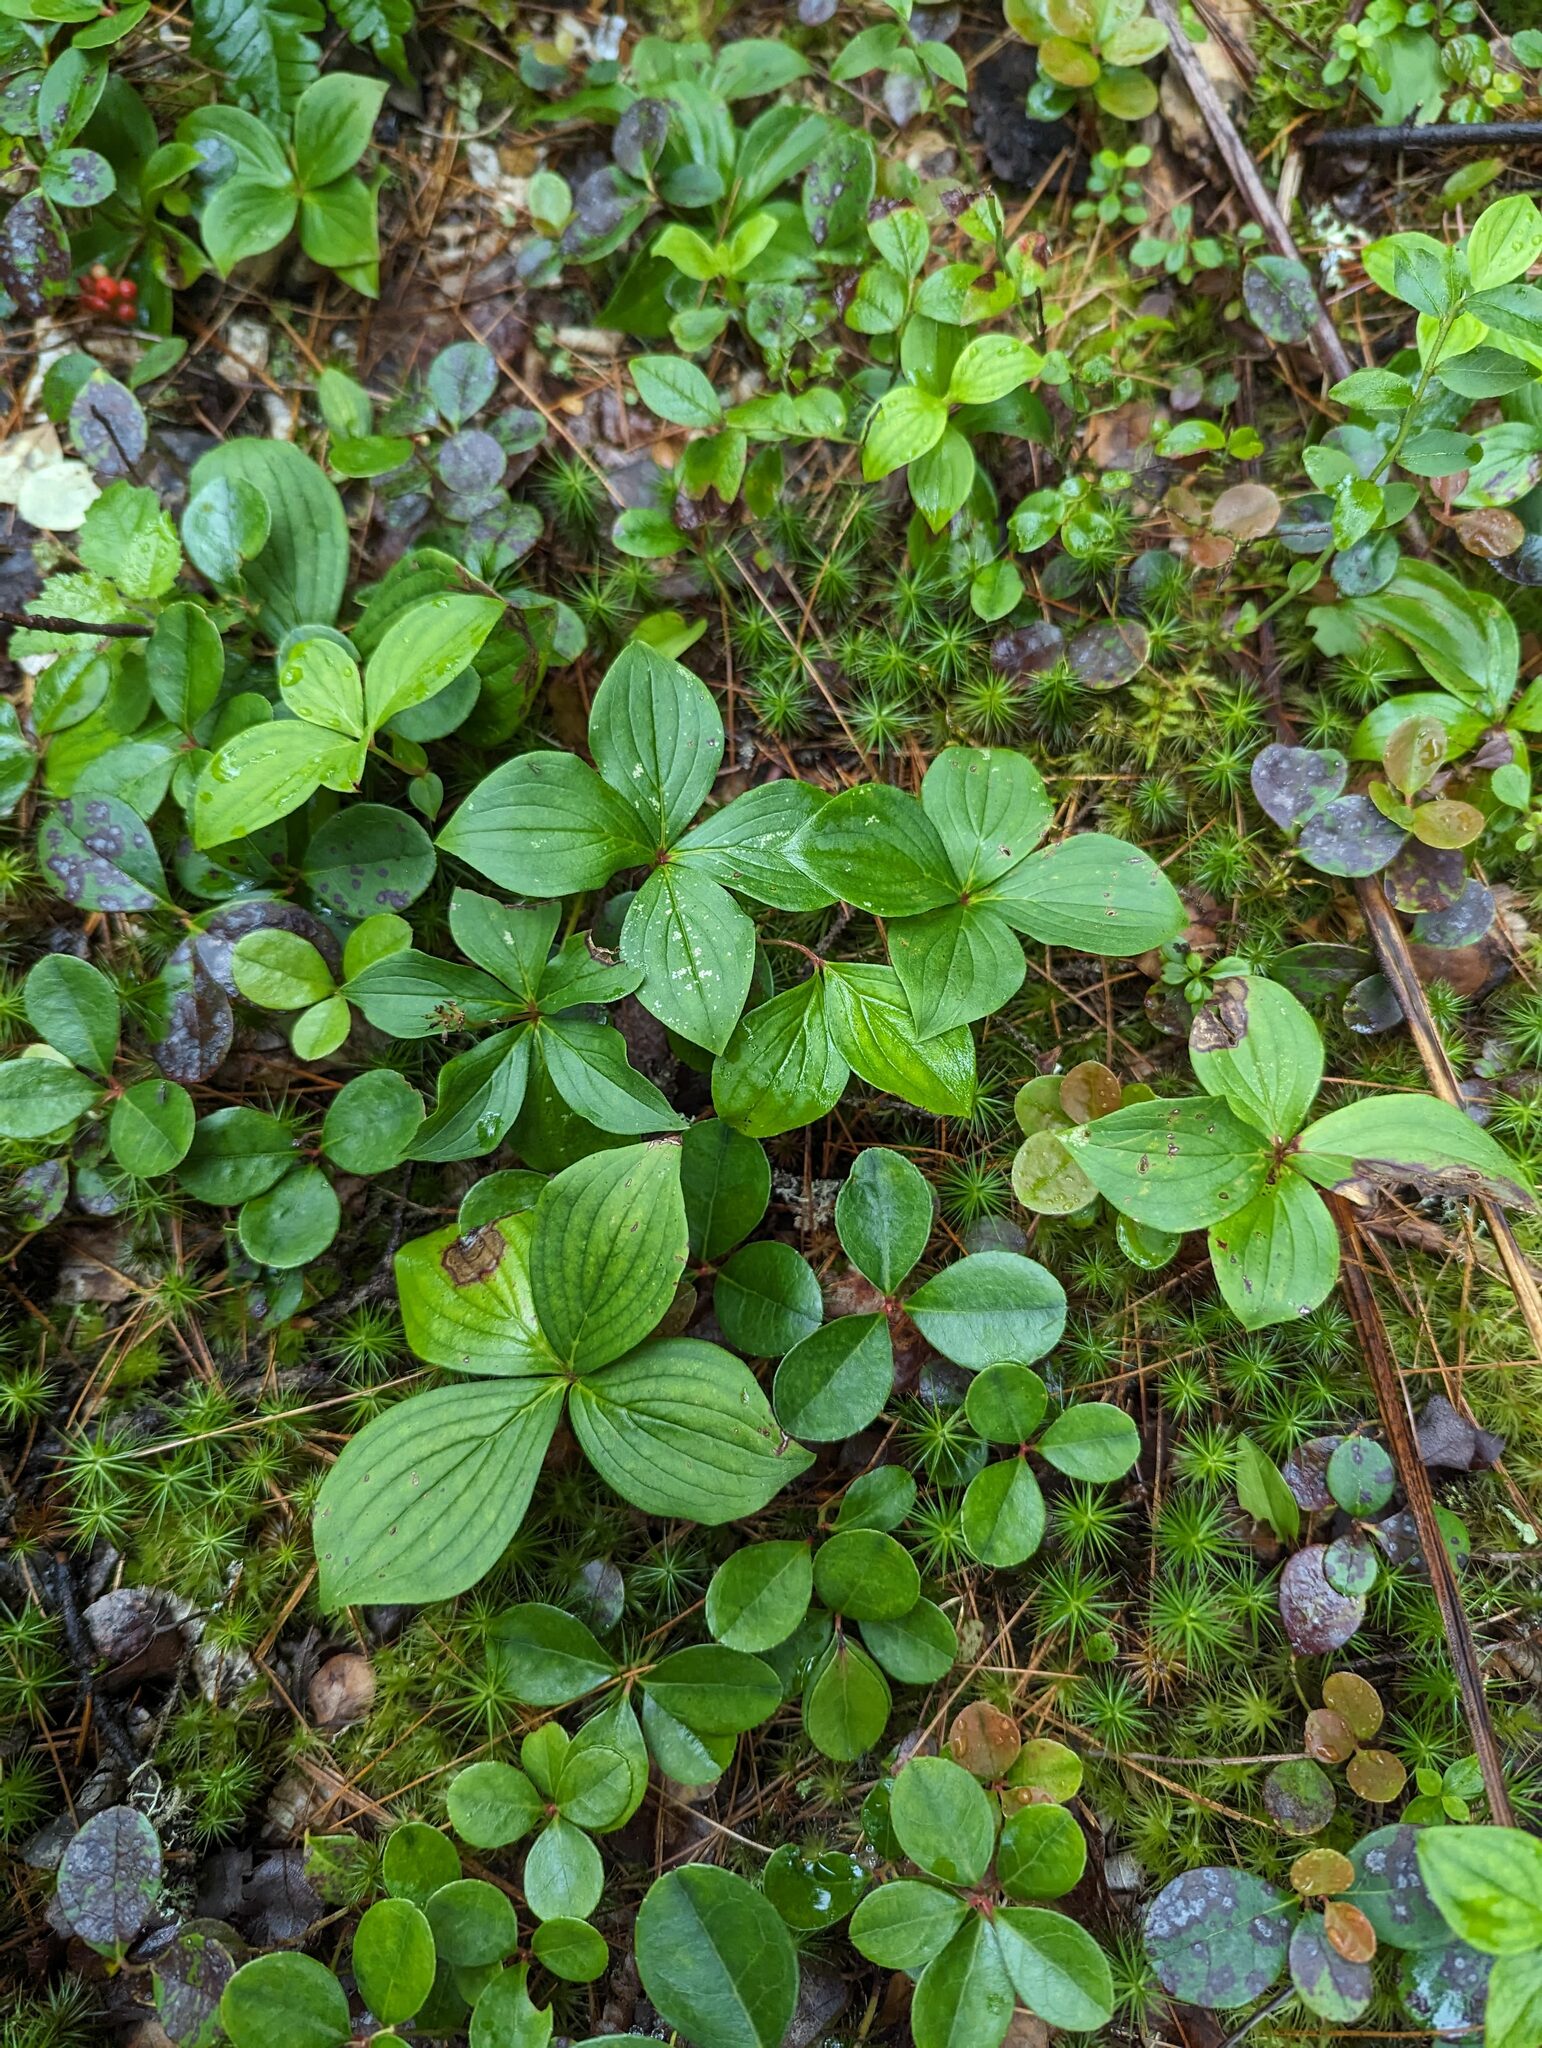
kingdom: Plantae
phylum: Tracheophyta
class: Magnoliopsida
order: Cornales
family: Cornaceae
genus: Cornus
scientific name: Cornus canadensis
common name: Creeping dogwood
